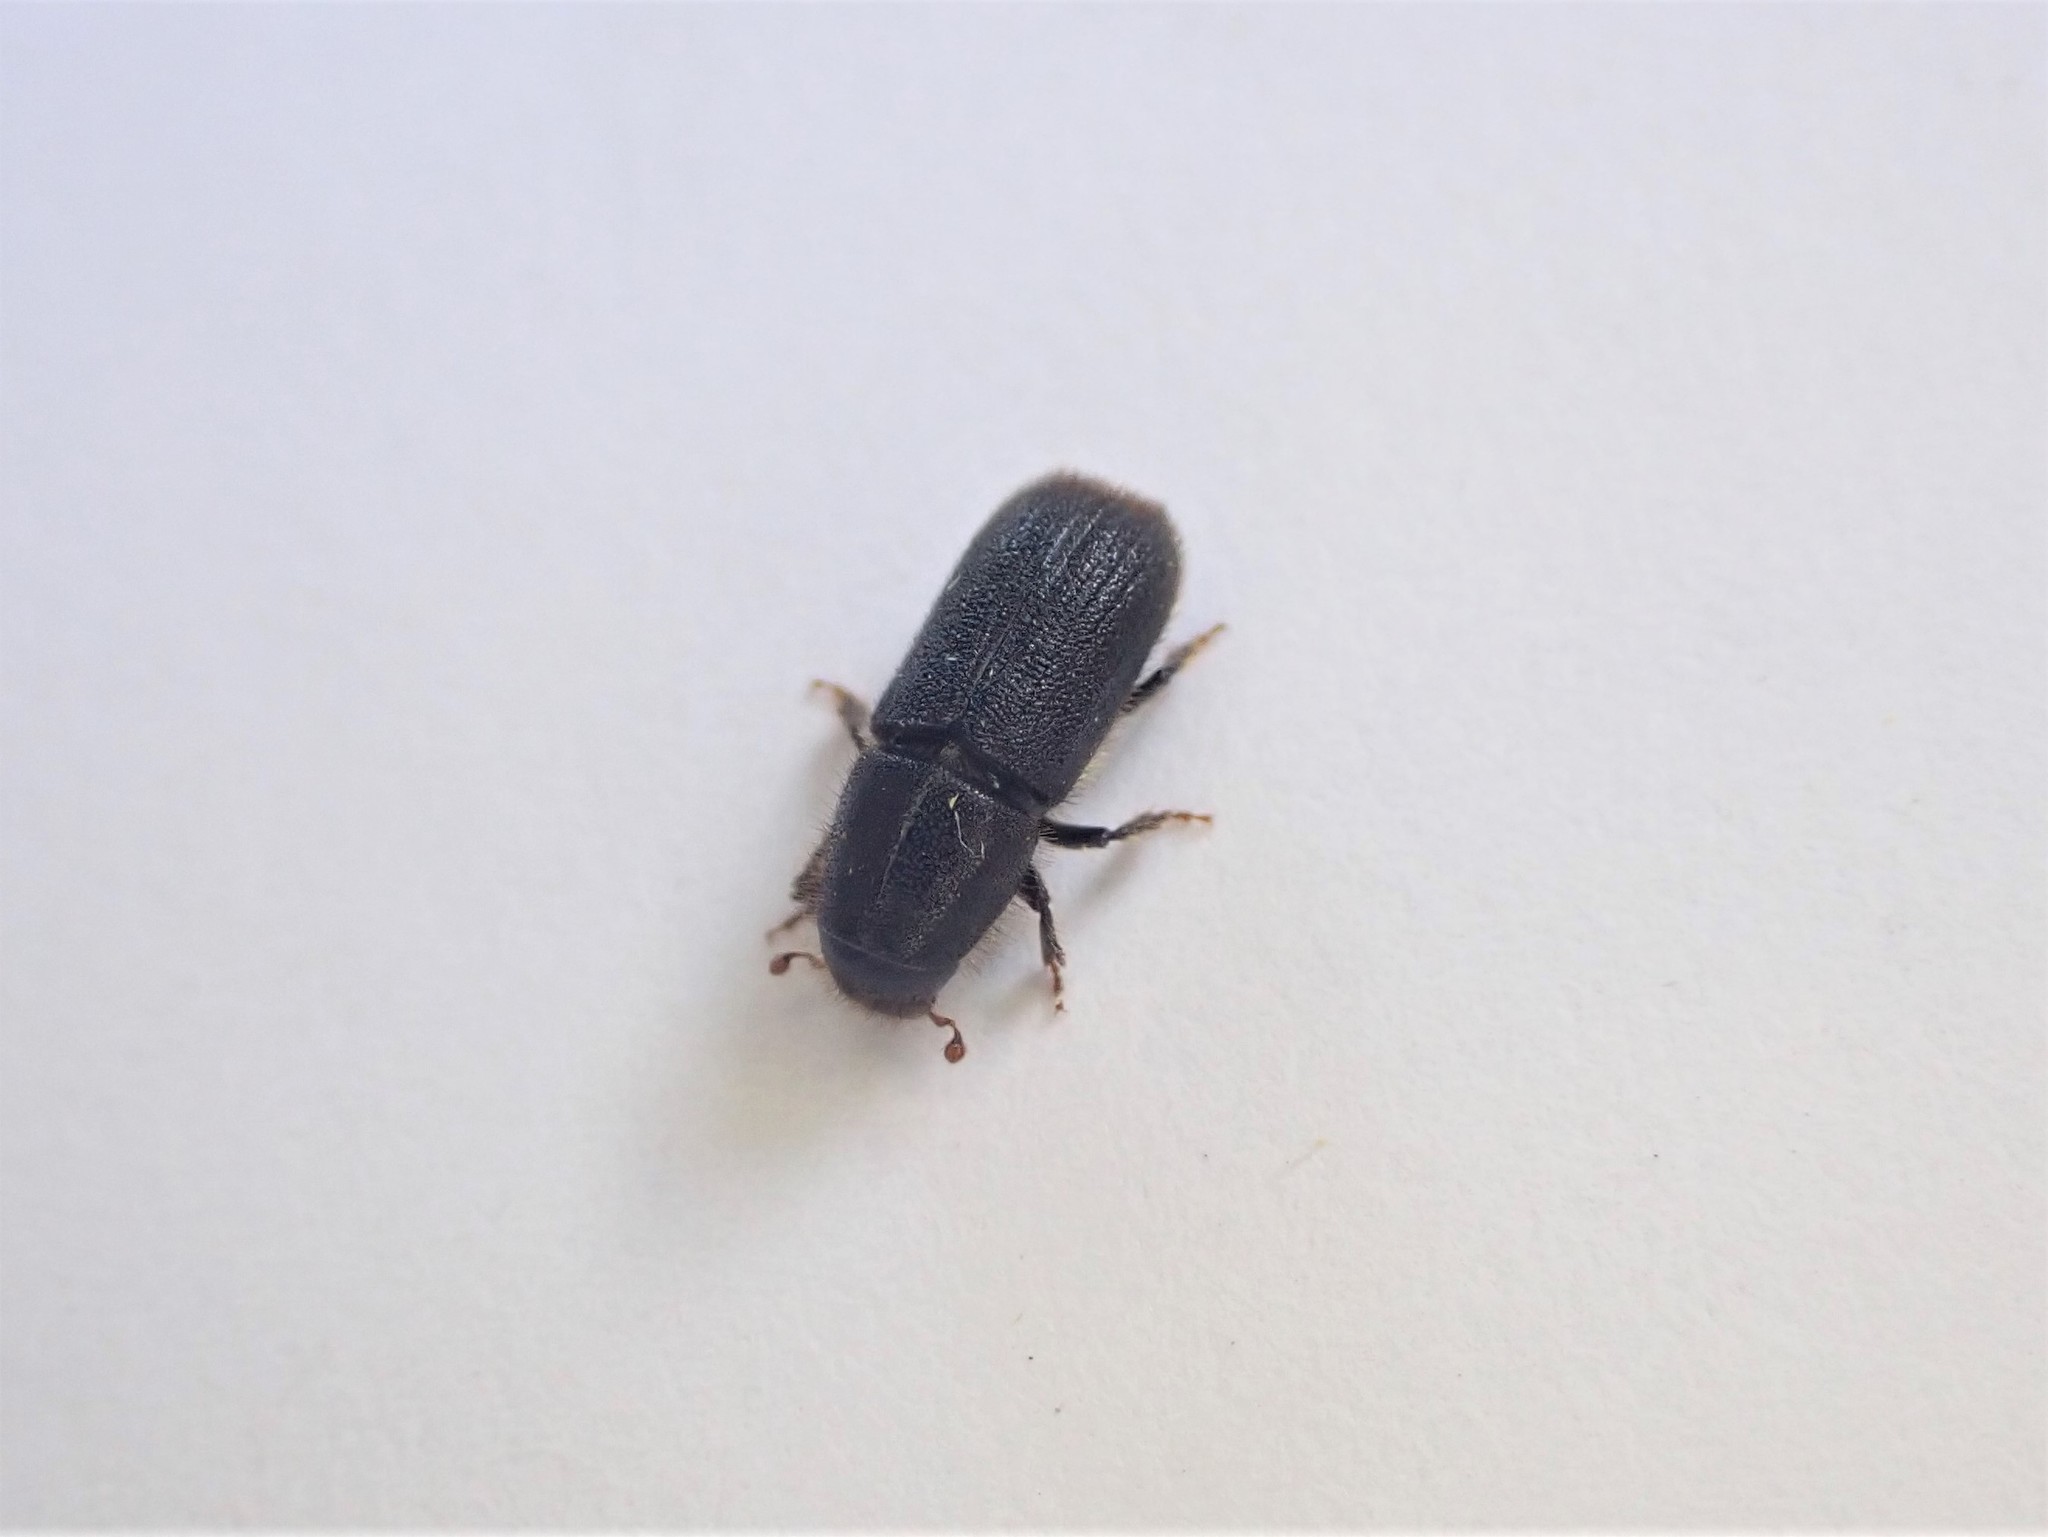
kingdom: Animalia
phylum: Arthropoda
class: Insecta
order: Coleoptera
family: Curculionidae
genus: Hylurgus
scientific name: Hylurgus ligniperda
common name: Goldenhaired bark beetle
